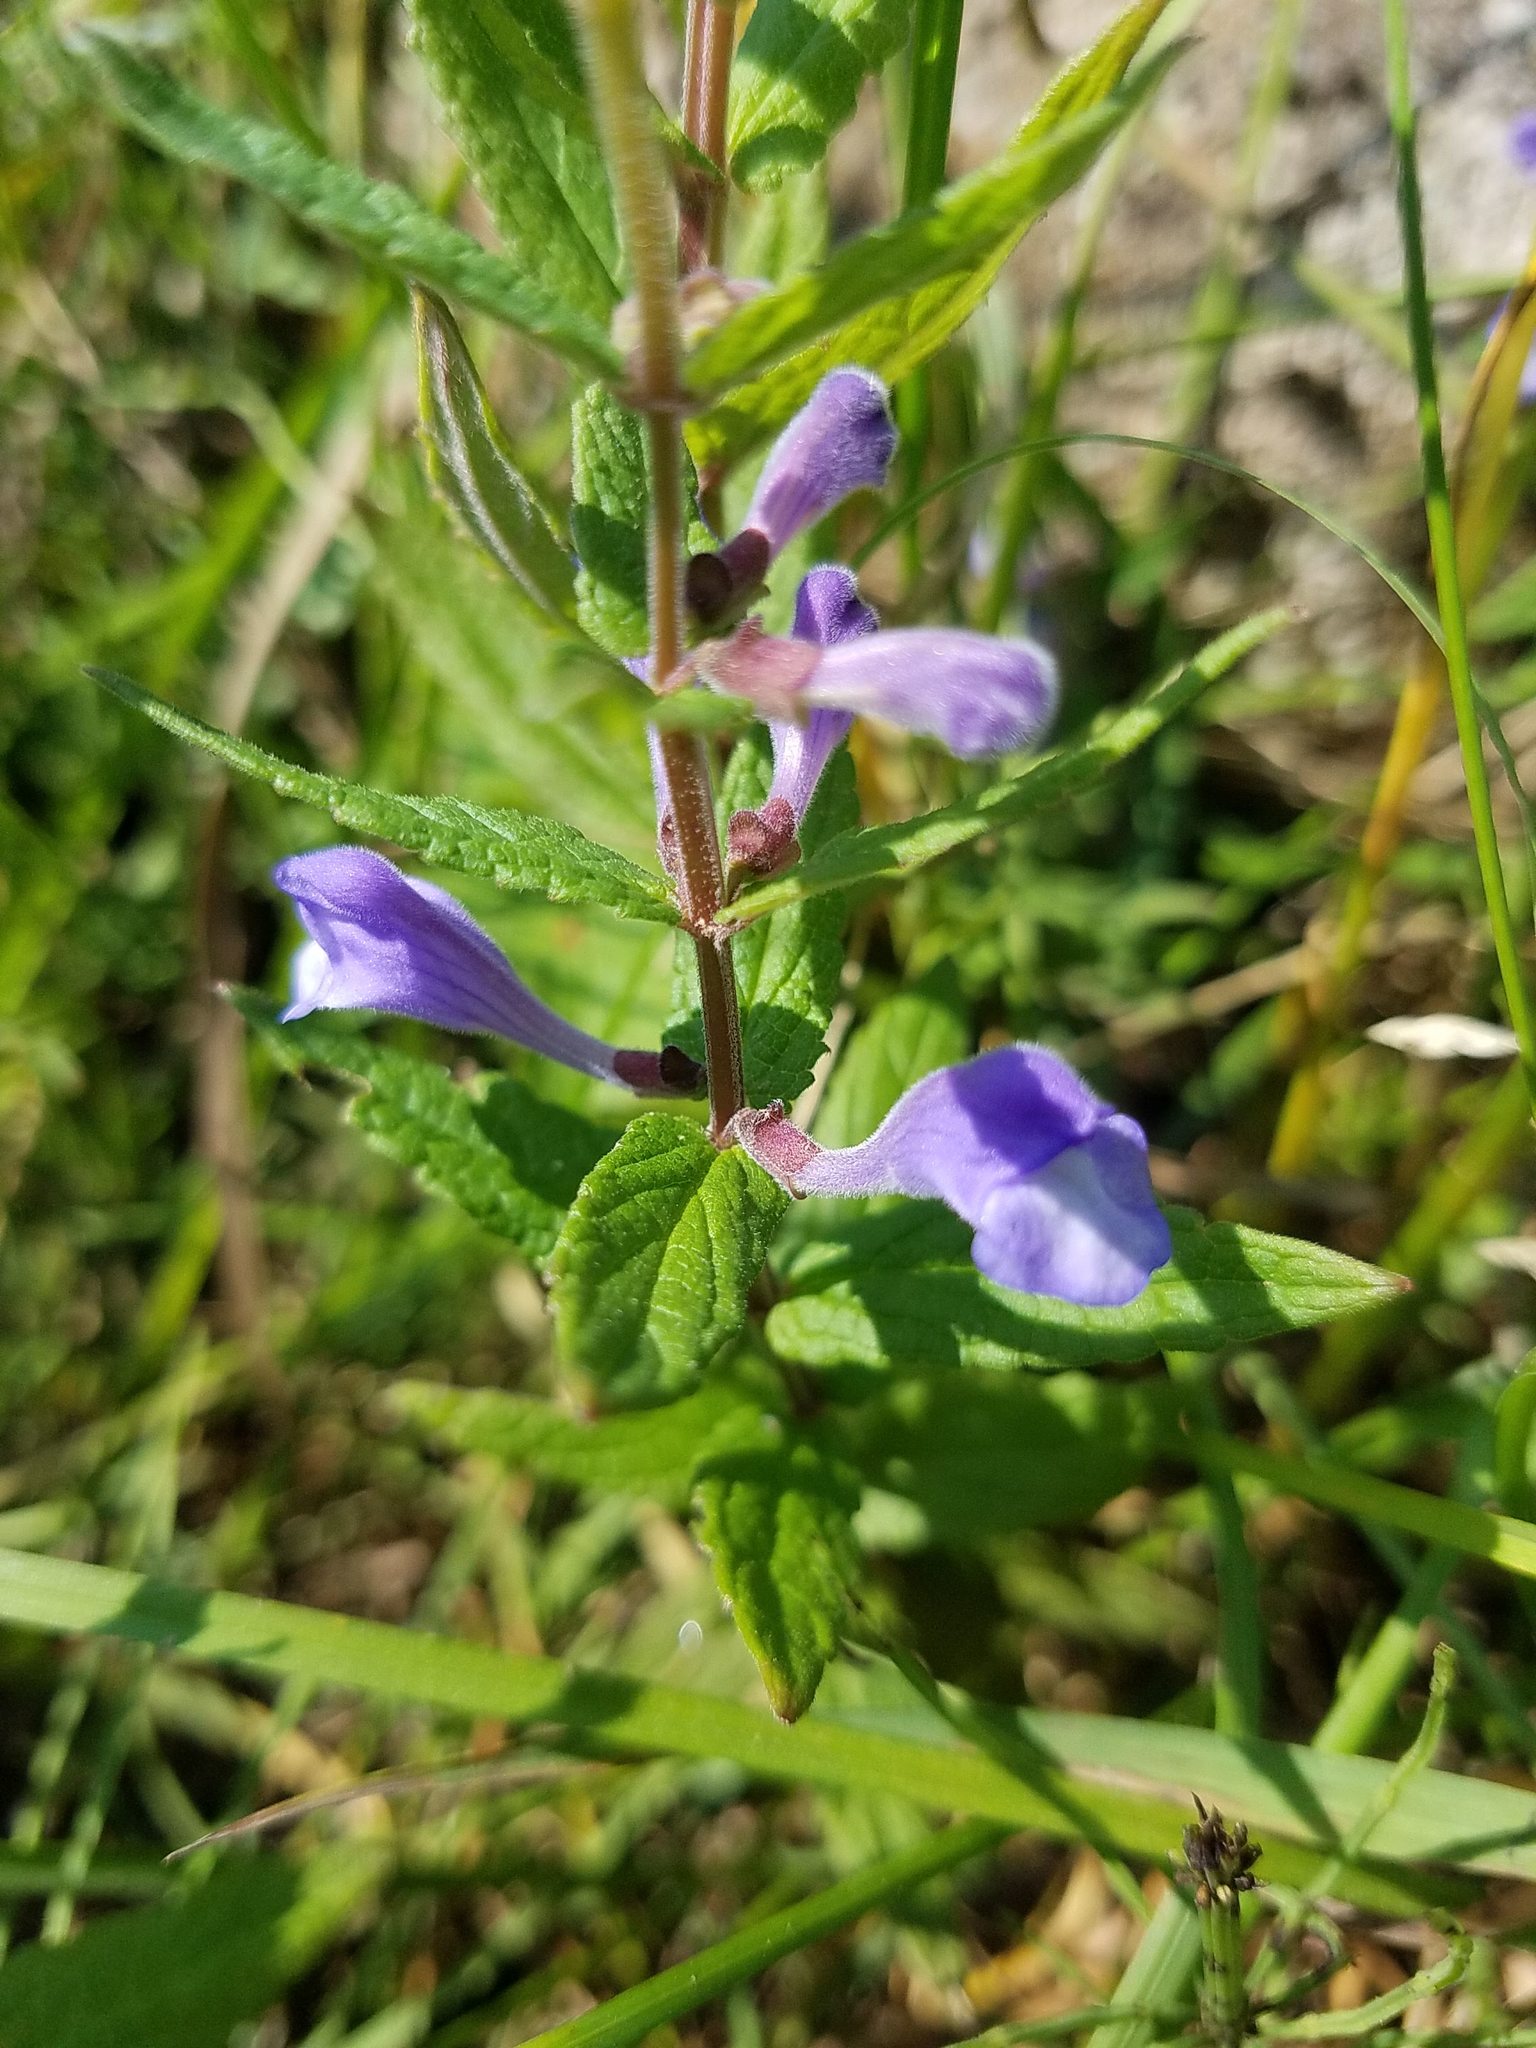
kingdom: Plantae
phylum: Tracheophyta
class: Magnoliopsida
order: Lamiales
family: Lamiaceae
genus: Scutellaria
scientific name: Scutellaria galericulata
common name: Skullcap
